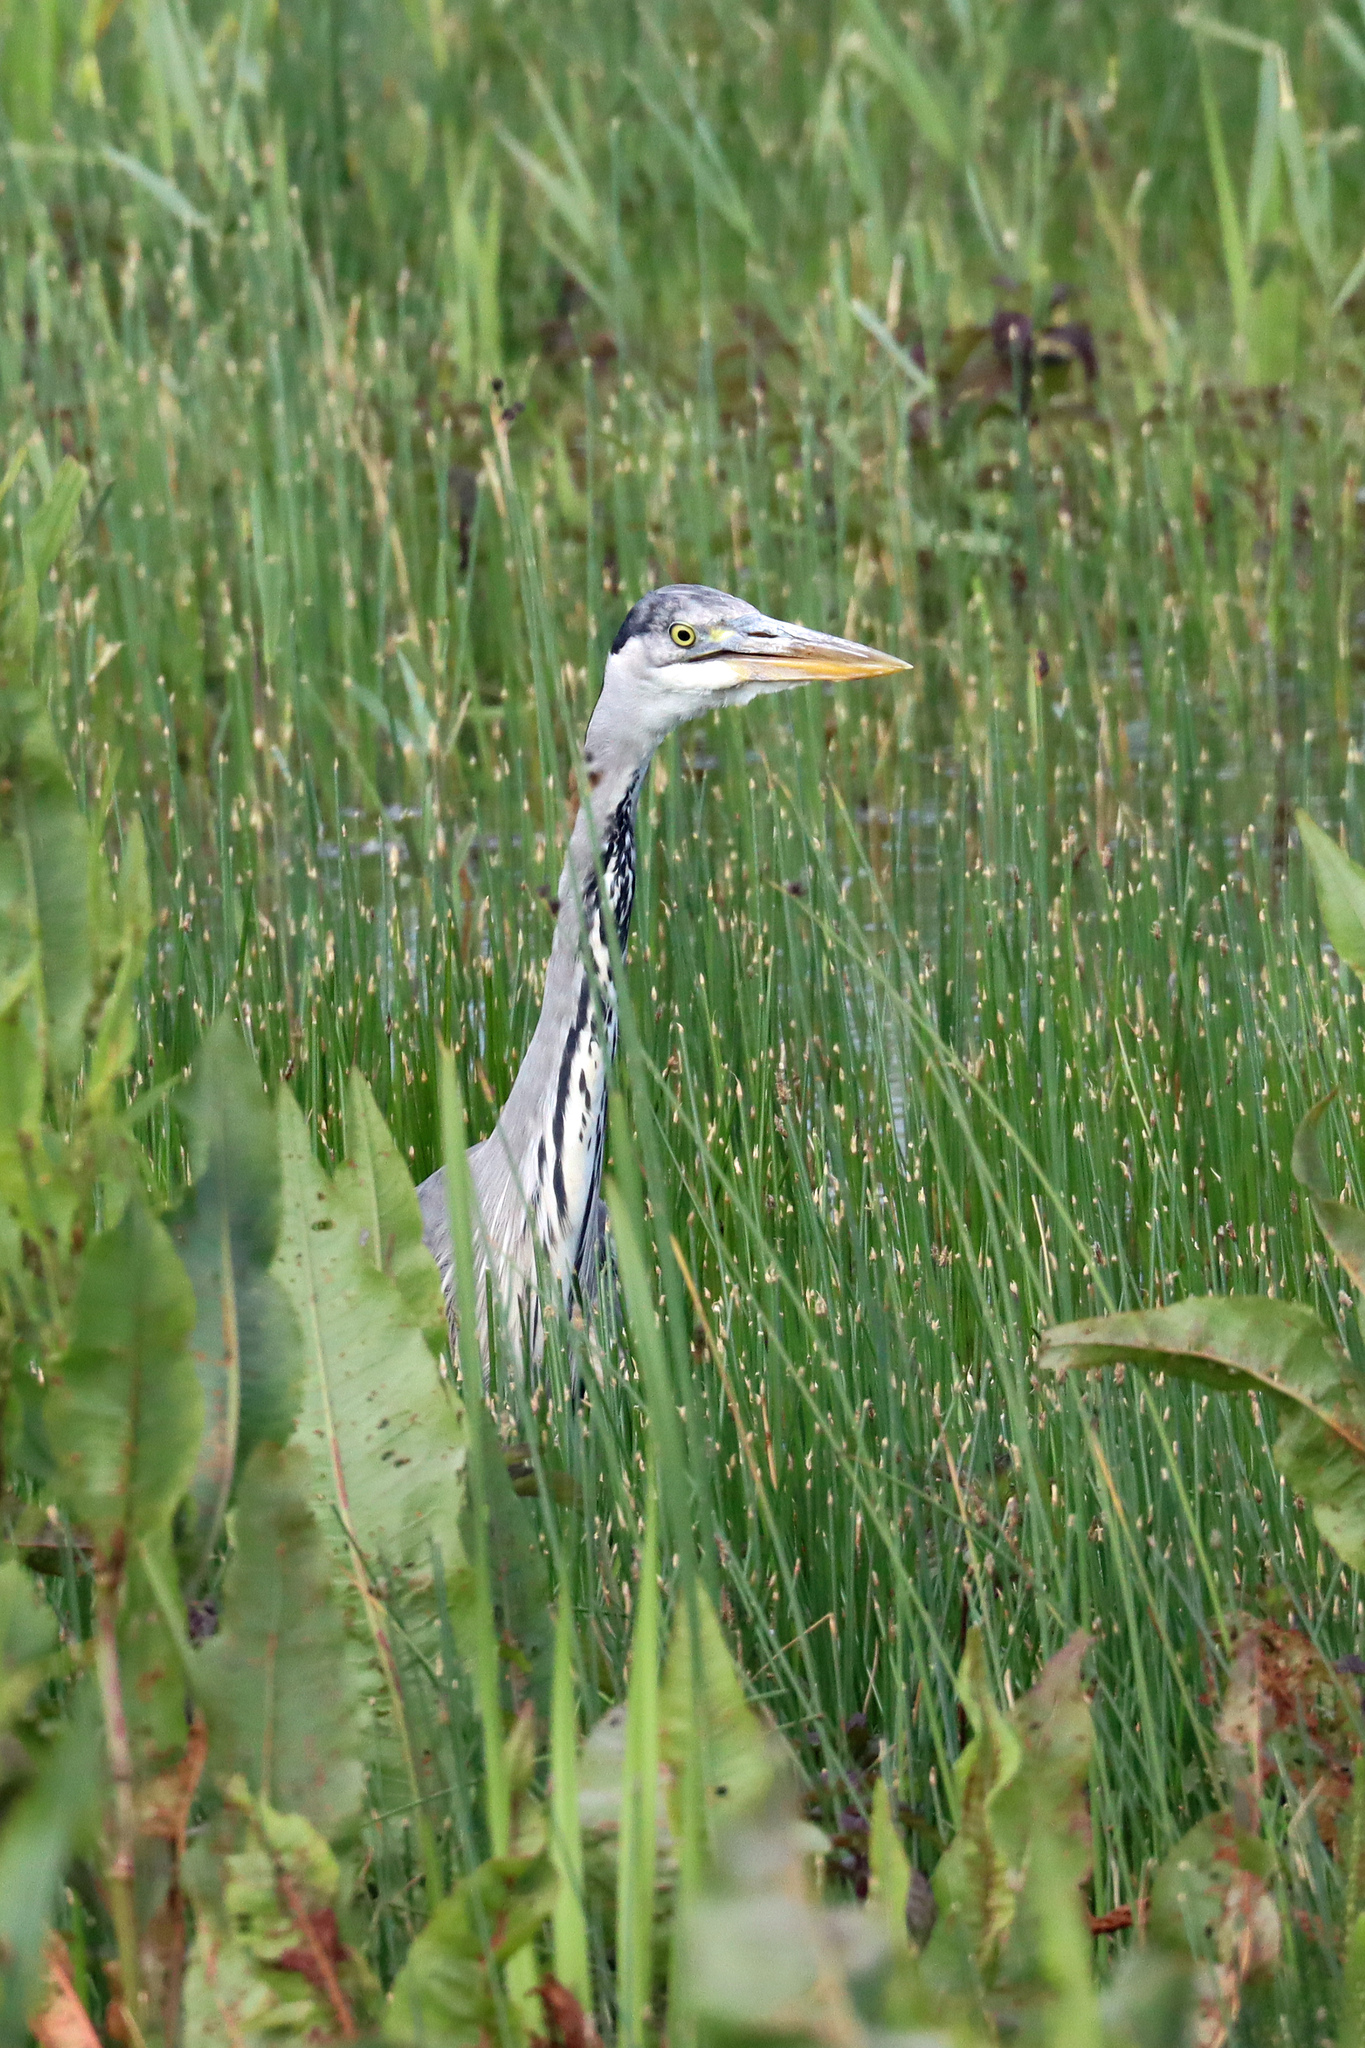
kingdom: Animalia
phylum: Chordata
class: Aves
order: Pelecaniformes
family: Ardeidae
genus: Ardea
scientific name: Ardea cinerea
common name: Grey heron
